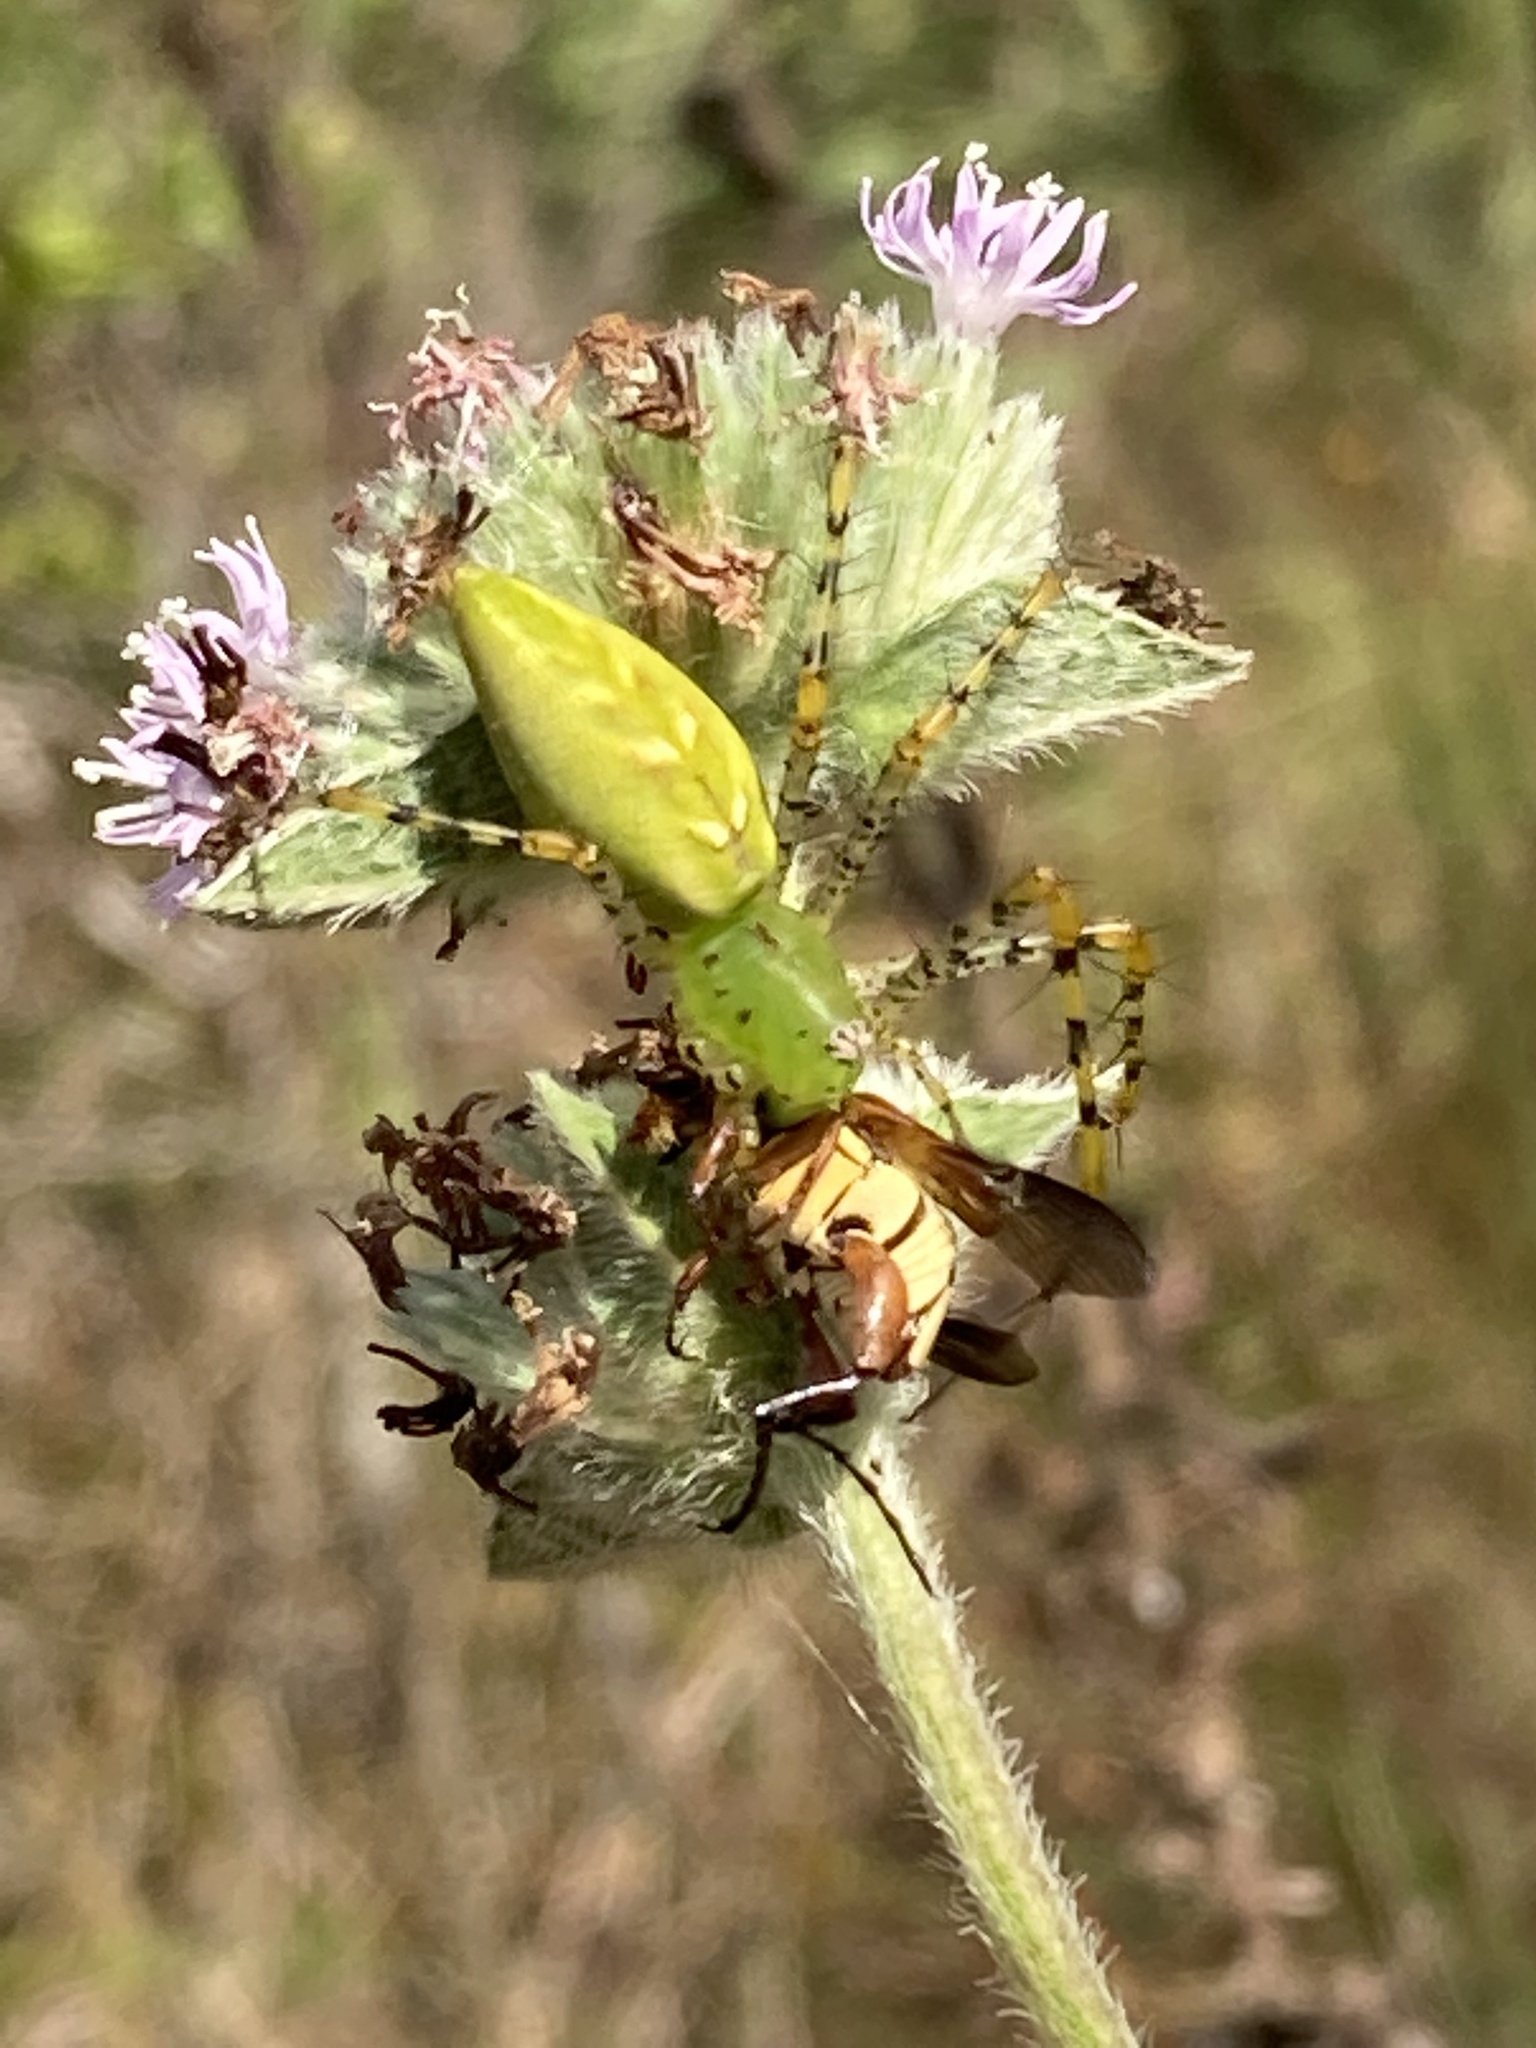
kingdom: Animalia
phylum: Arthropoda
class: Arachnida
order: Araneae
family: Oxyopidae
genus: Peucetia
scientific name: Peucetia viridans
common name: Lynx spiders
